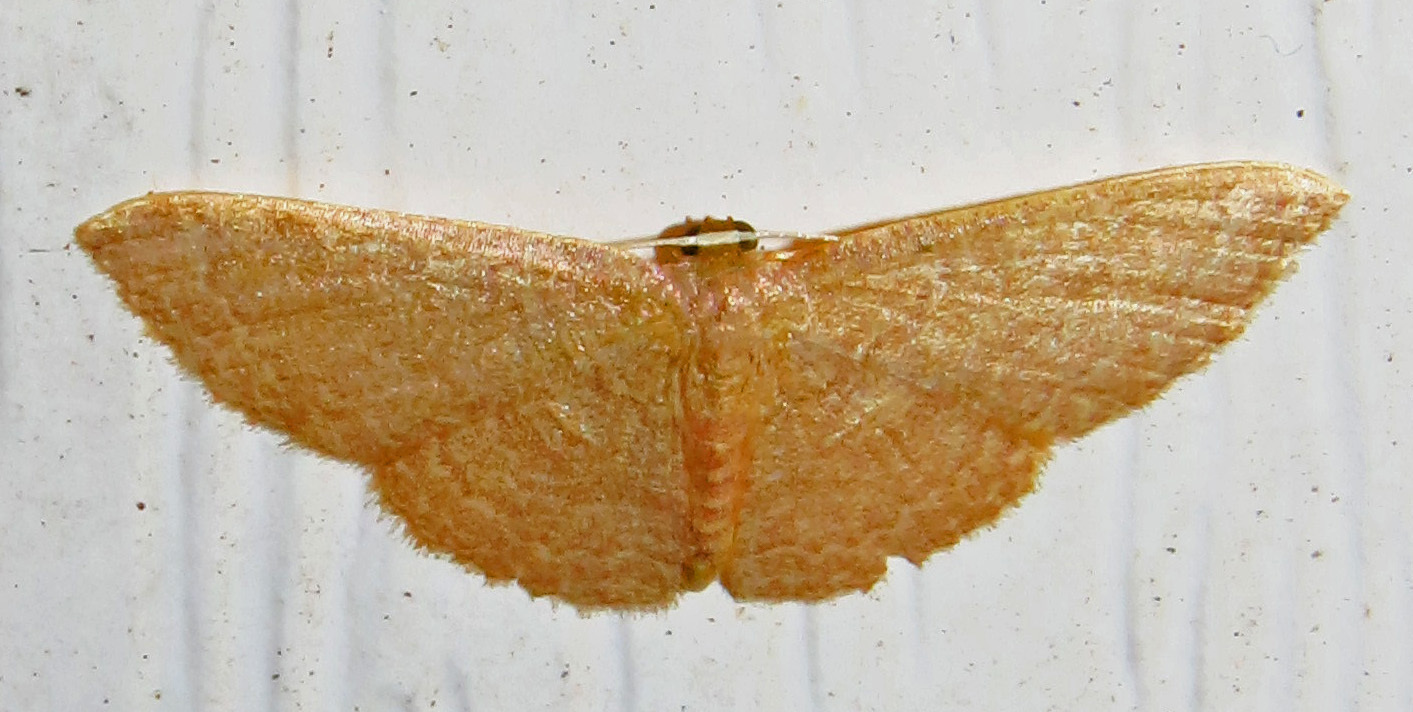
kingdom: Animalia
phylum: Arthropoda
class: Insecta
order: Lepidoptera
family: Geometridae
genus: Pleuroprucha
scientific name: Pleuroprucha insulsaria
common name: Common tan wave
